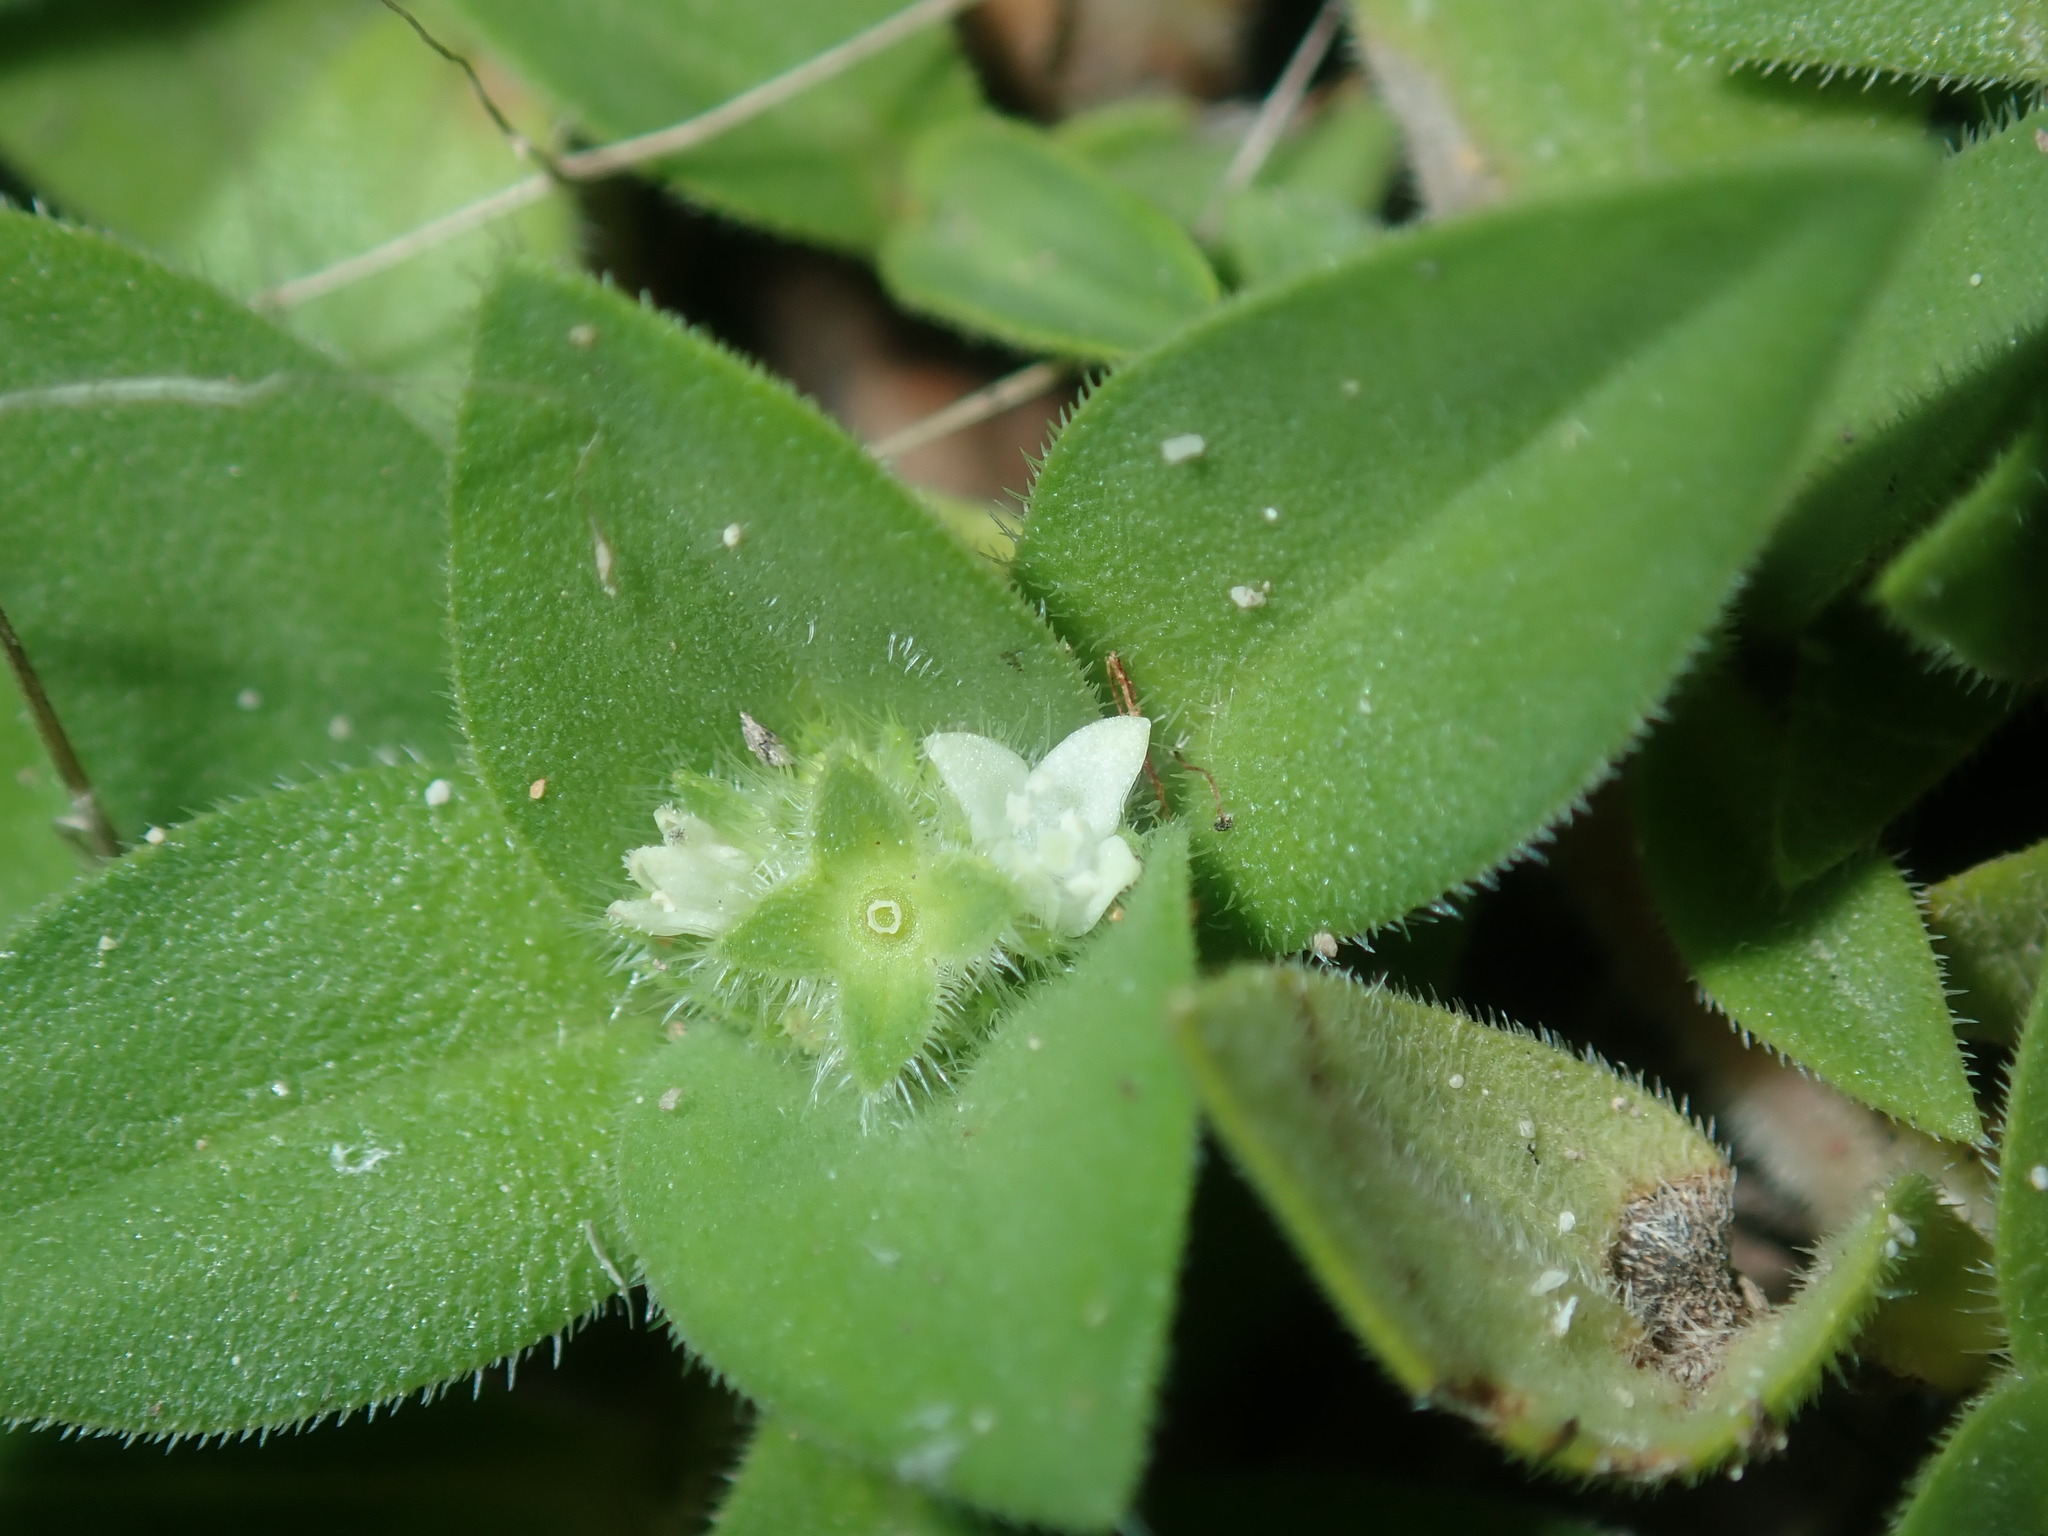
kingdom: Plantae
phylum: Tracheophyta
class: Magnoliopsida
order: Gentianales
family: Rubiaceae
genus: Richardia
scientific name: Richardia humistrata
